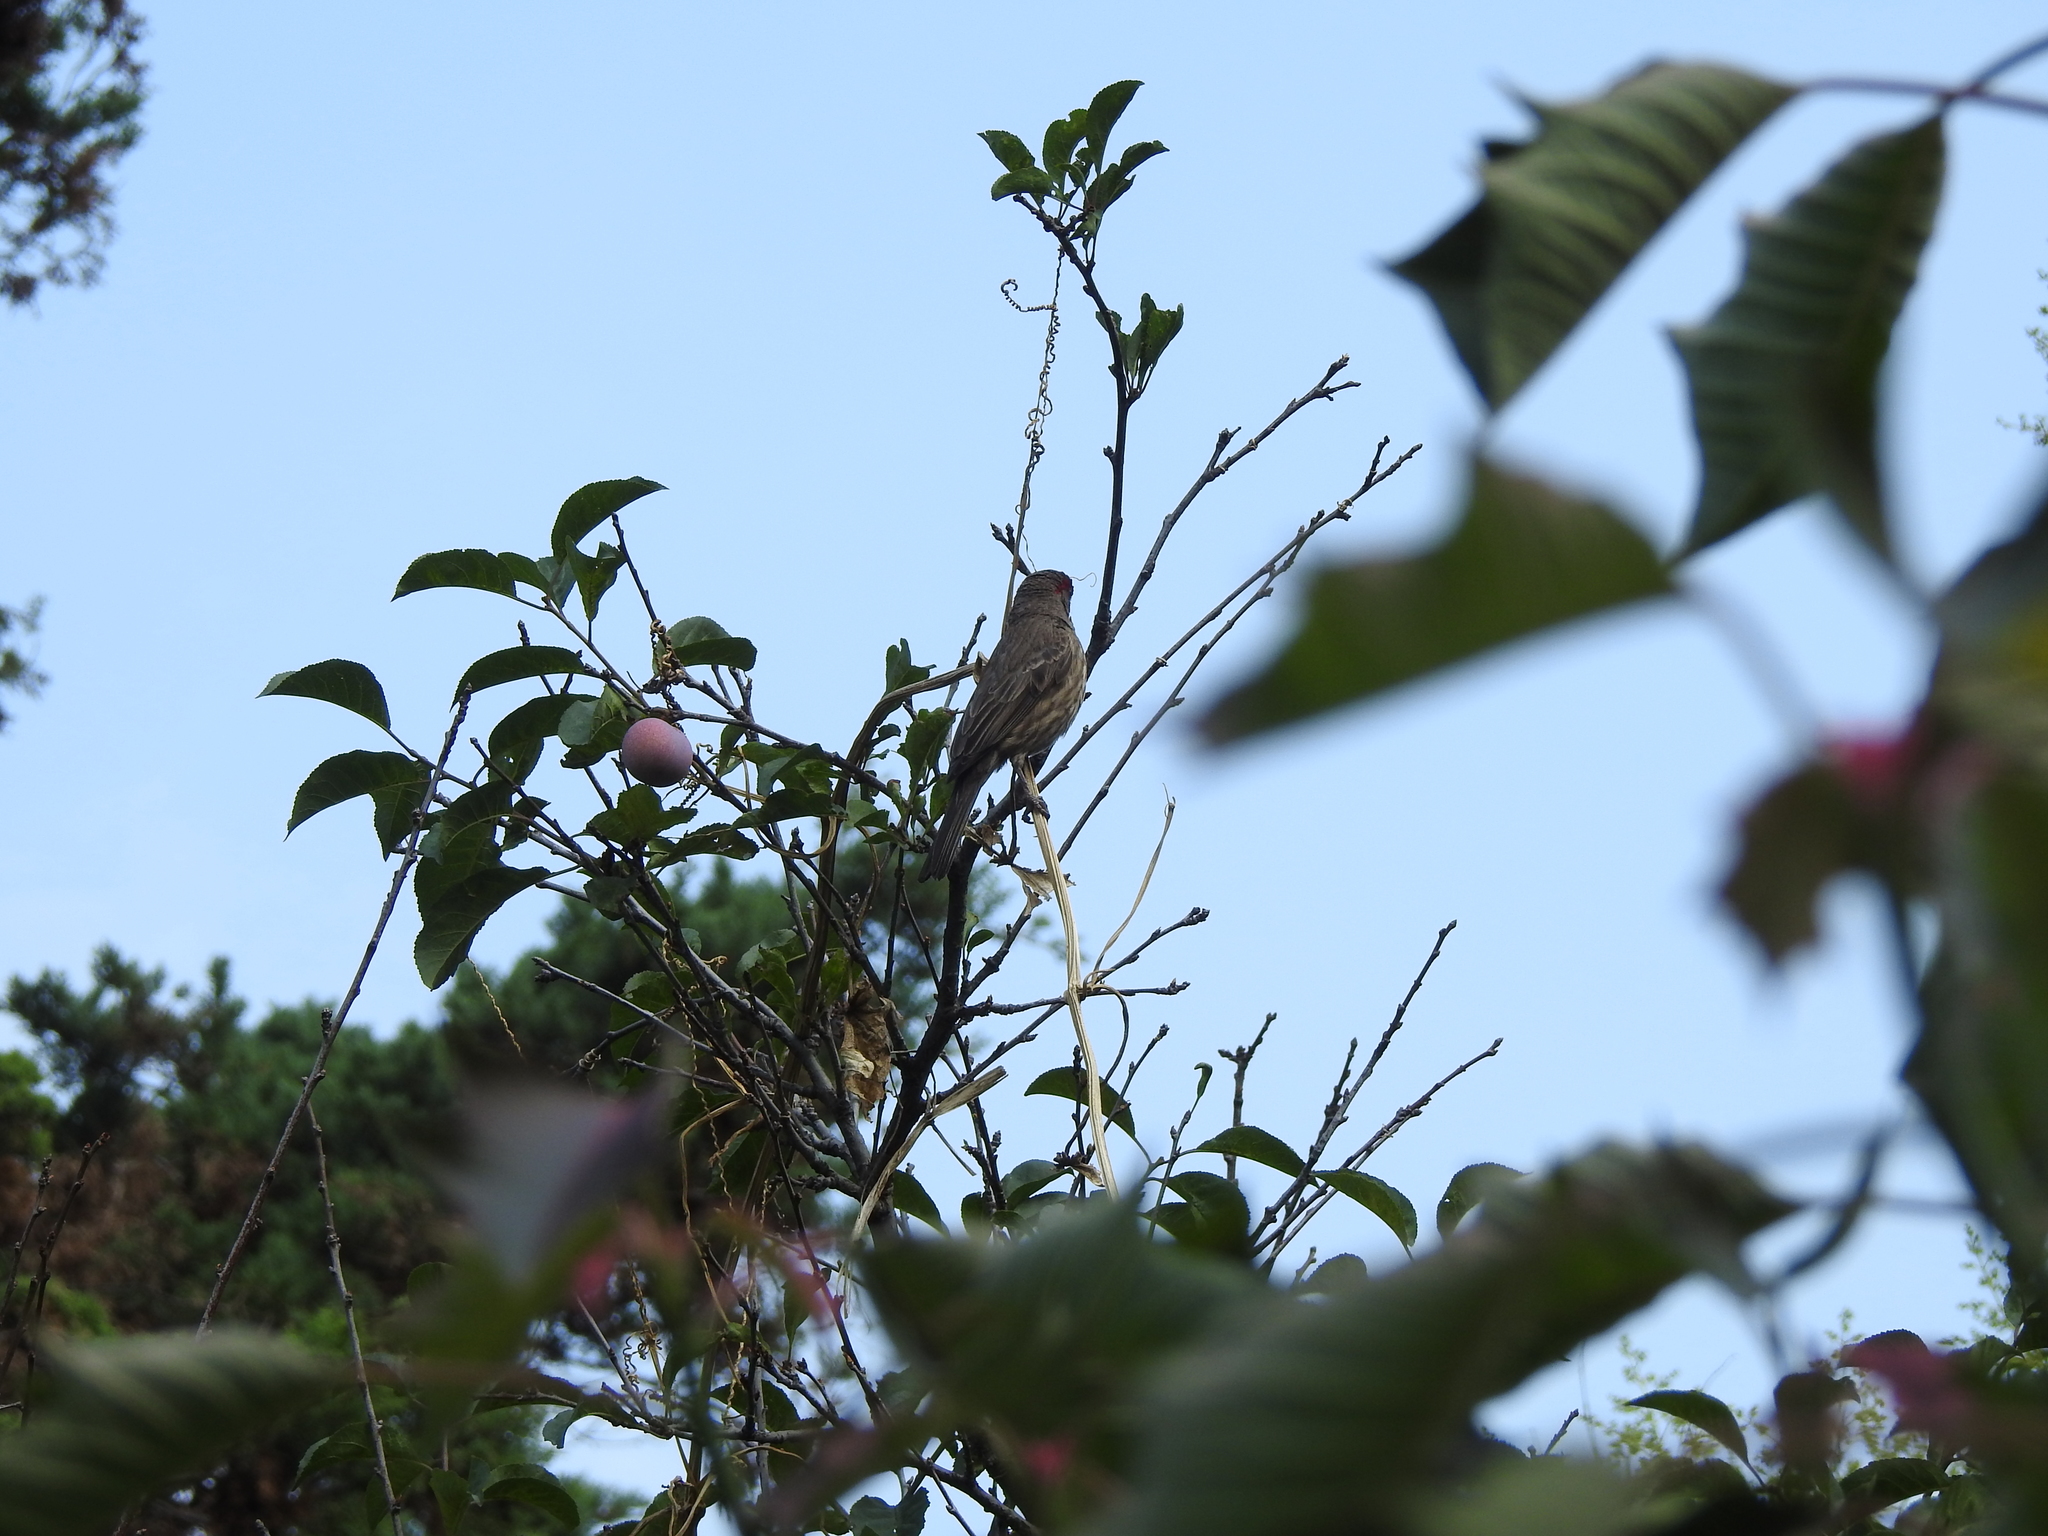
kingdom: Animalia
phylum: Chordata
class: Aves
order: Passeriformes
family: Fringillidae
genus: Haemorhous
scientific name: Haemorhous mexicanus
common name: House finch
